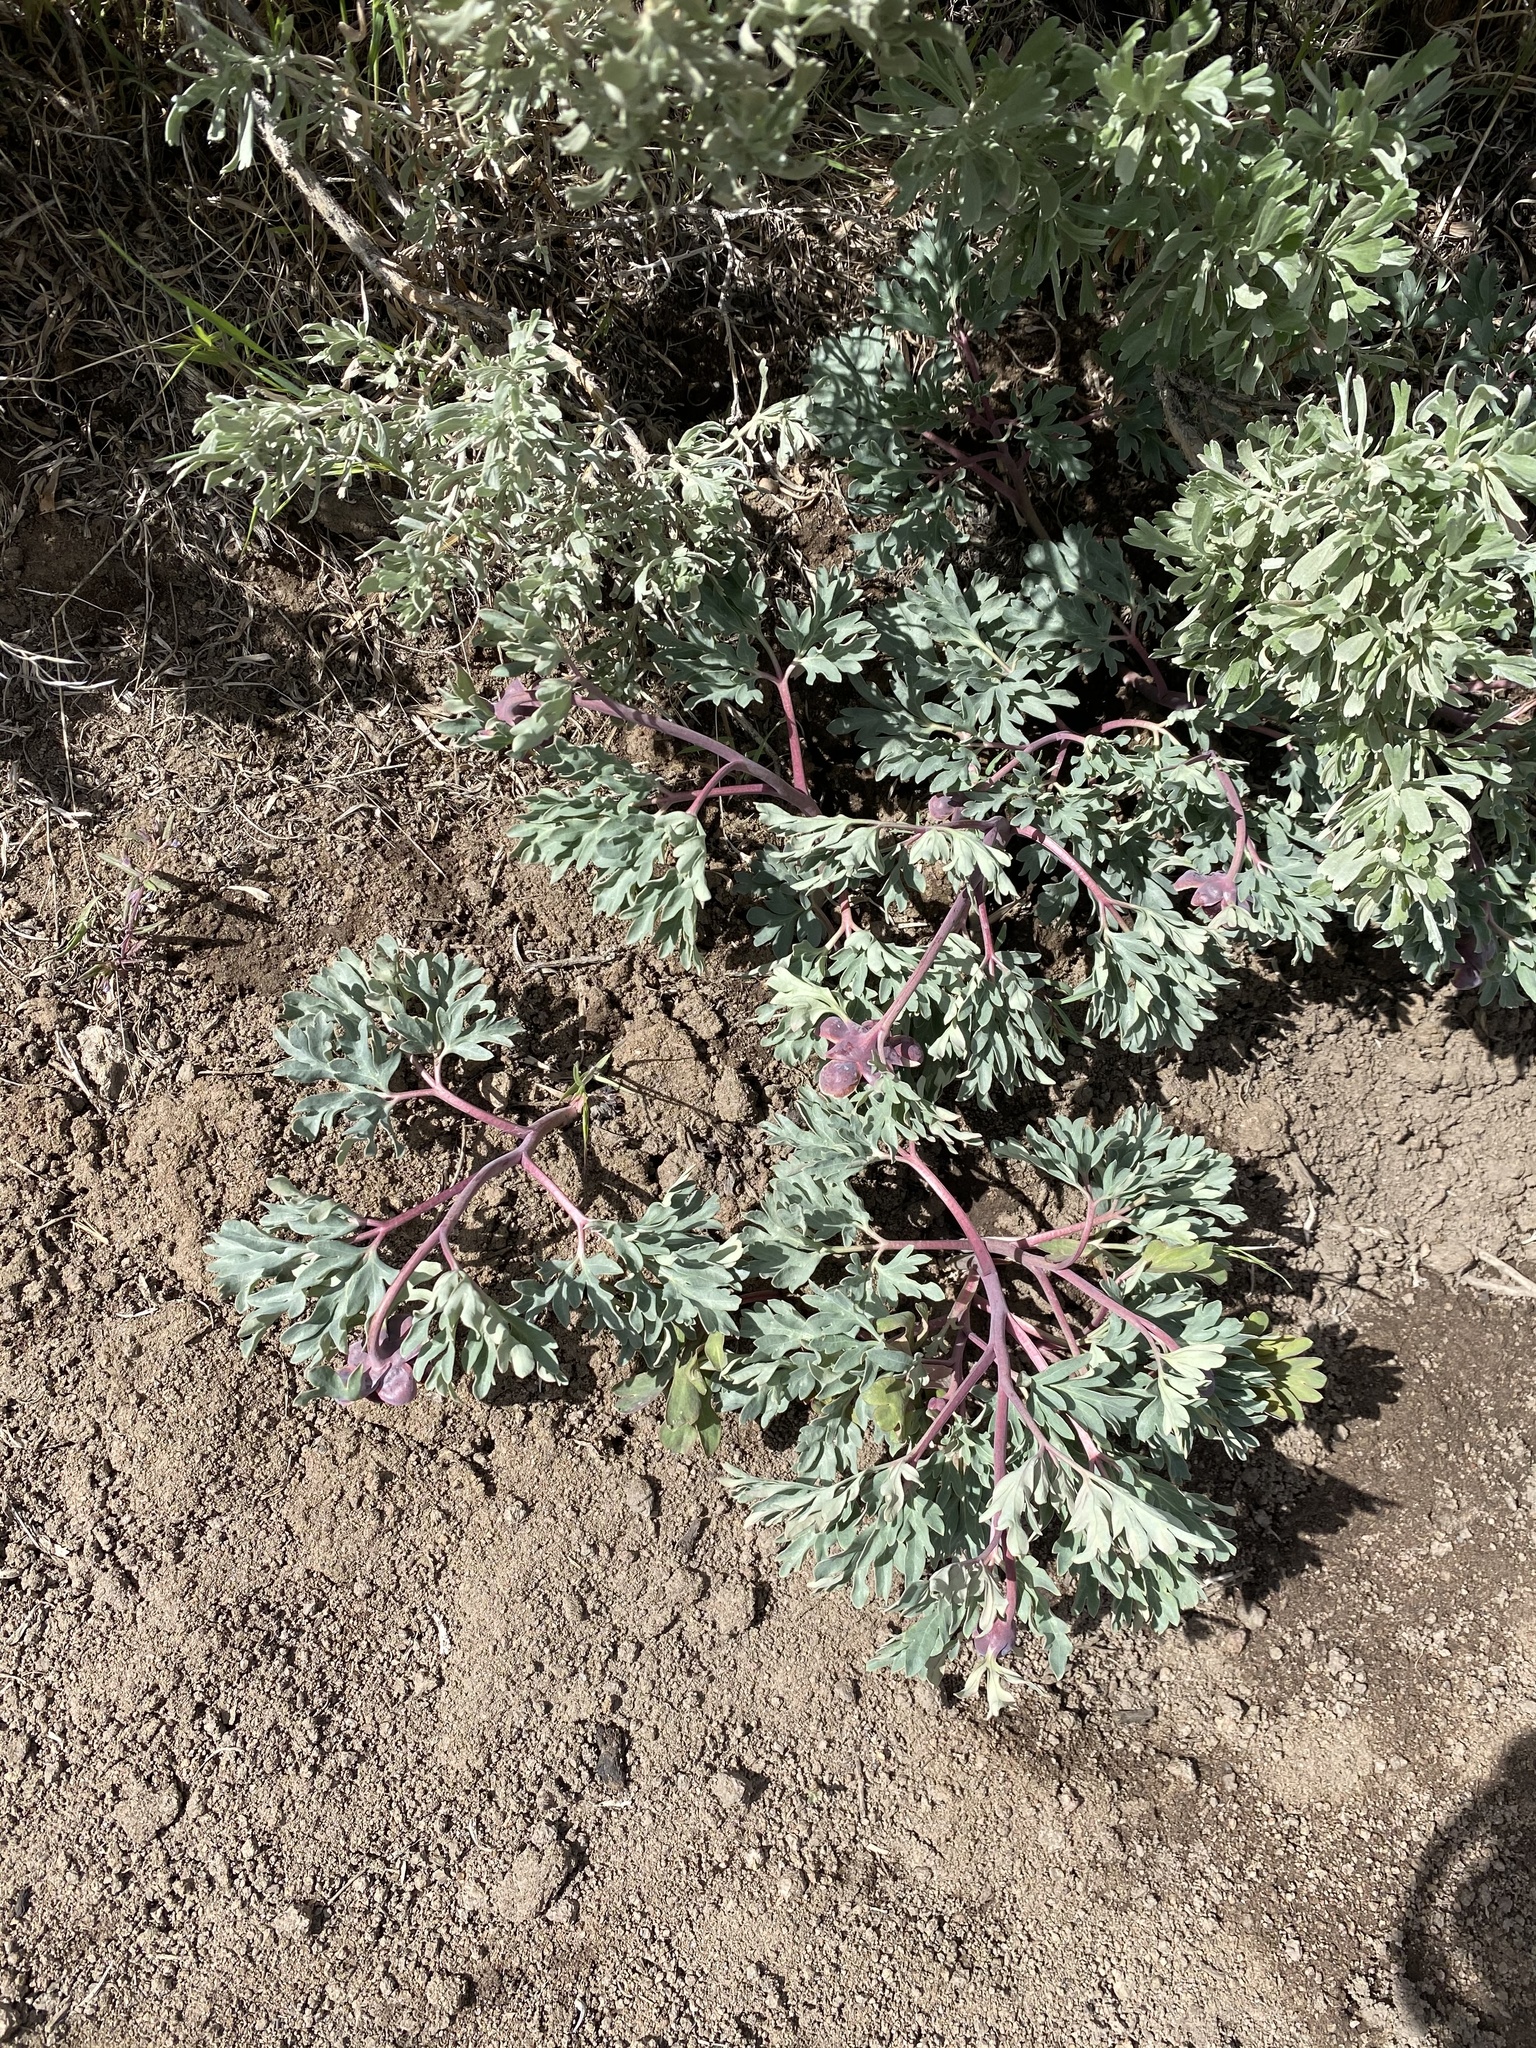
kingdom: Plantae
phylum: Tracheophyta
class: Magnoliopsida
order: Saxifragales
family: Paeoniaceae
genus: Paeonia
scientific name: Paeonia brownii
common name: Brown's peony
